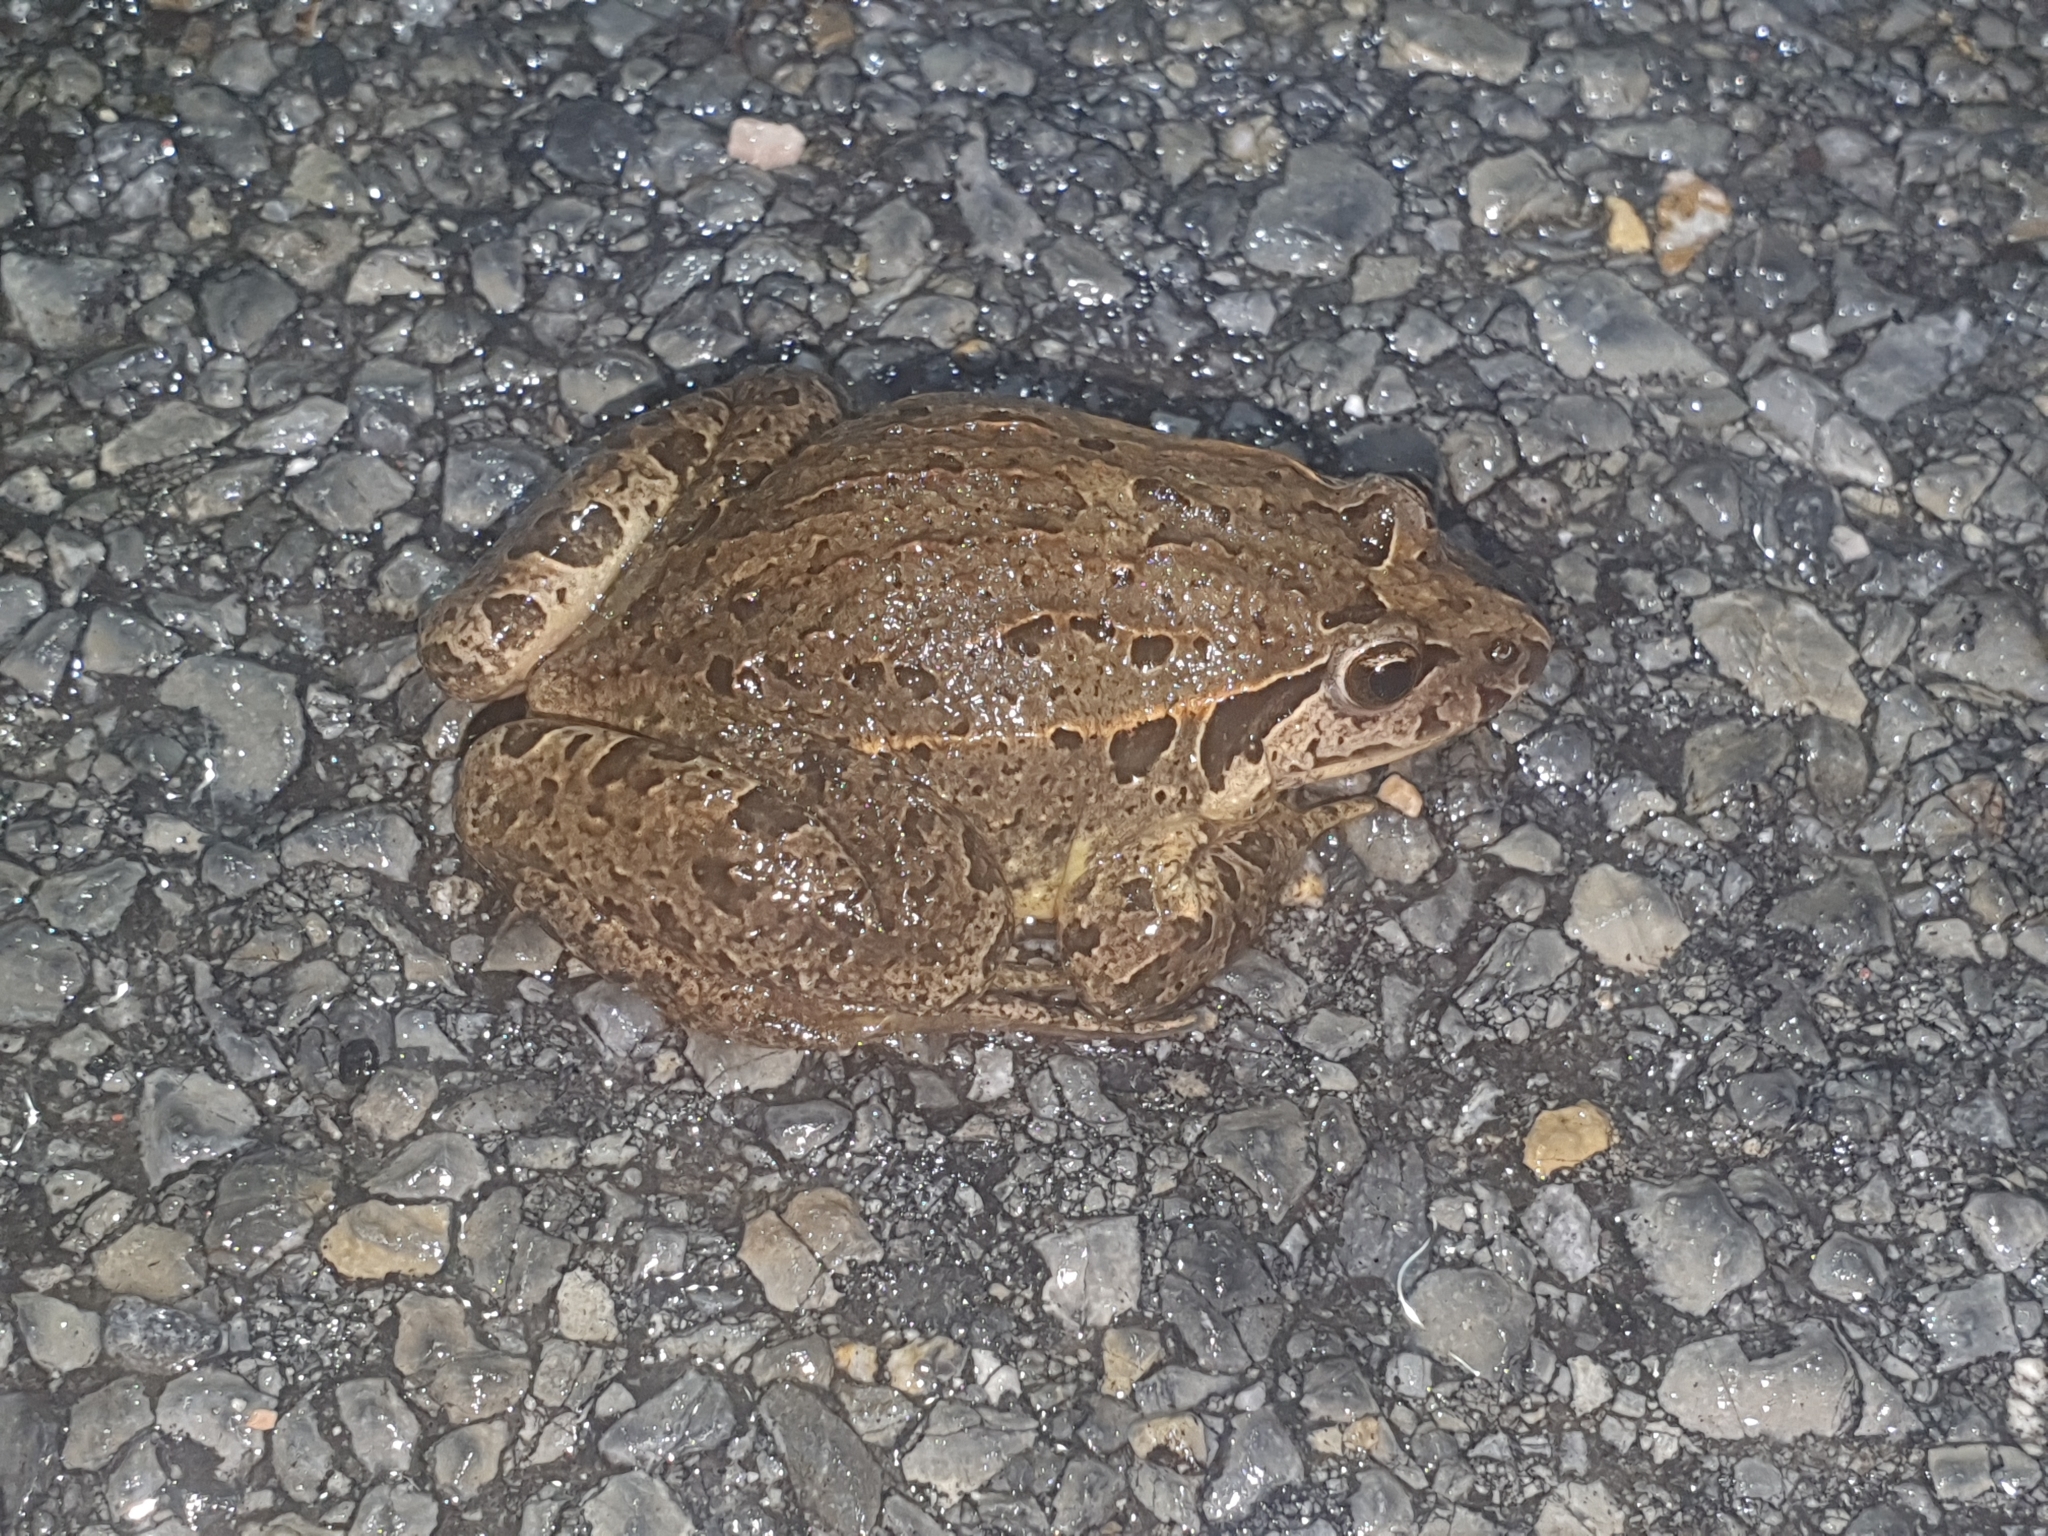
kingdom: Animalia
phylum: Chordata
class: Amphibia
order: Anura
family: Alytidae
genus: Discoglossus
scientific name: Discoglossus galganoi
